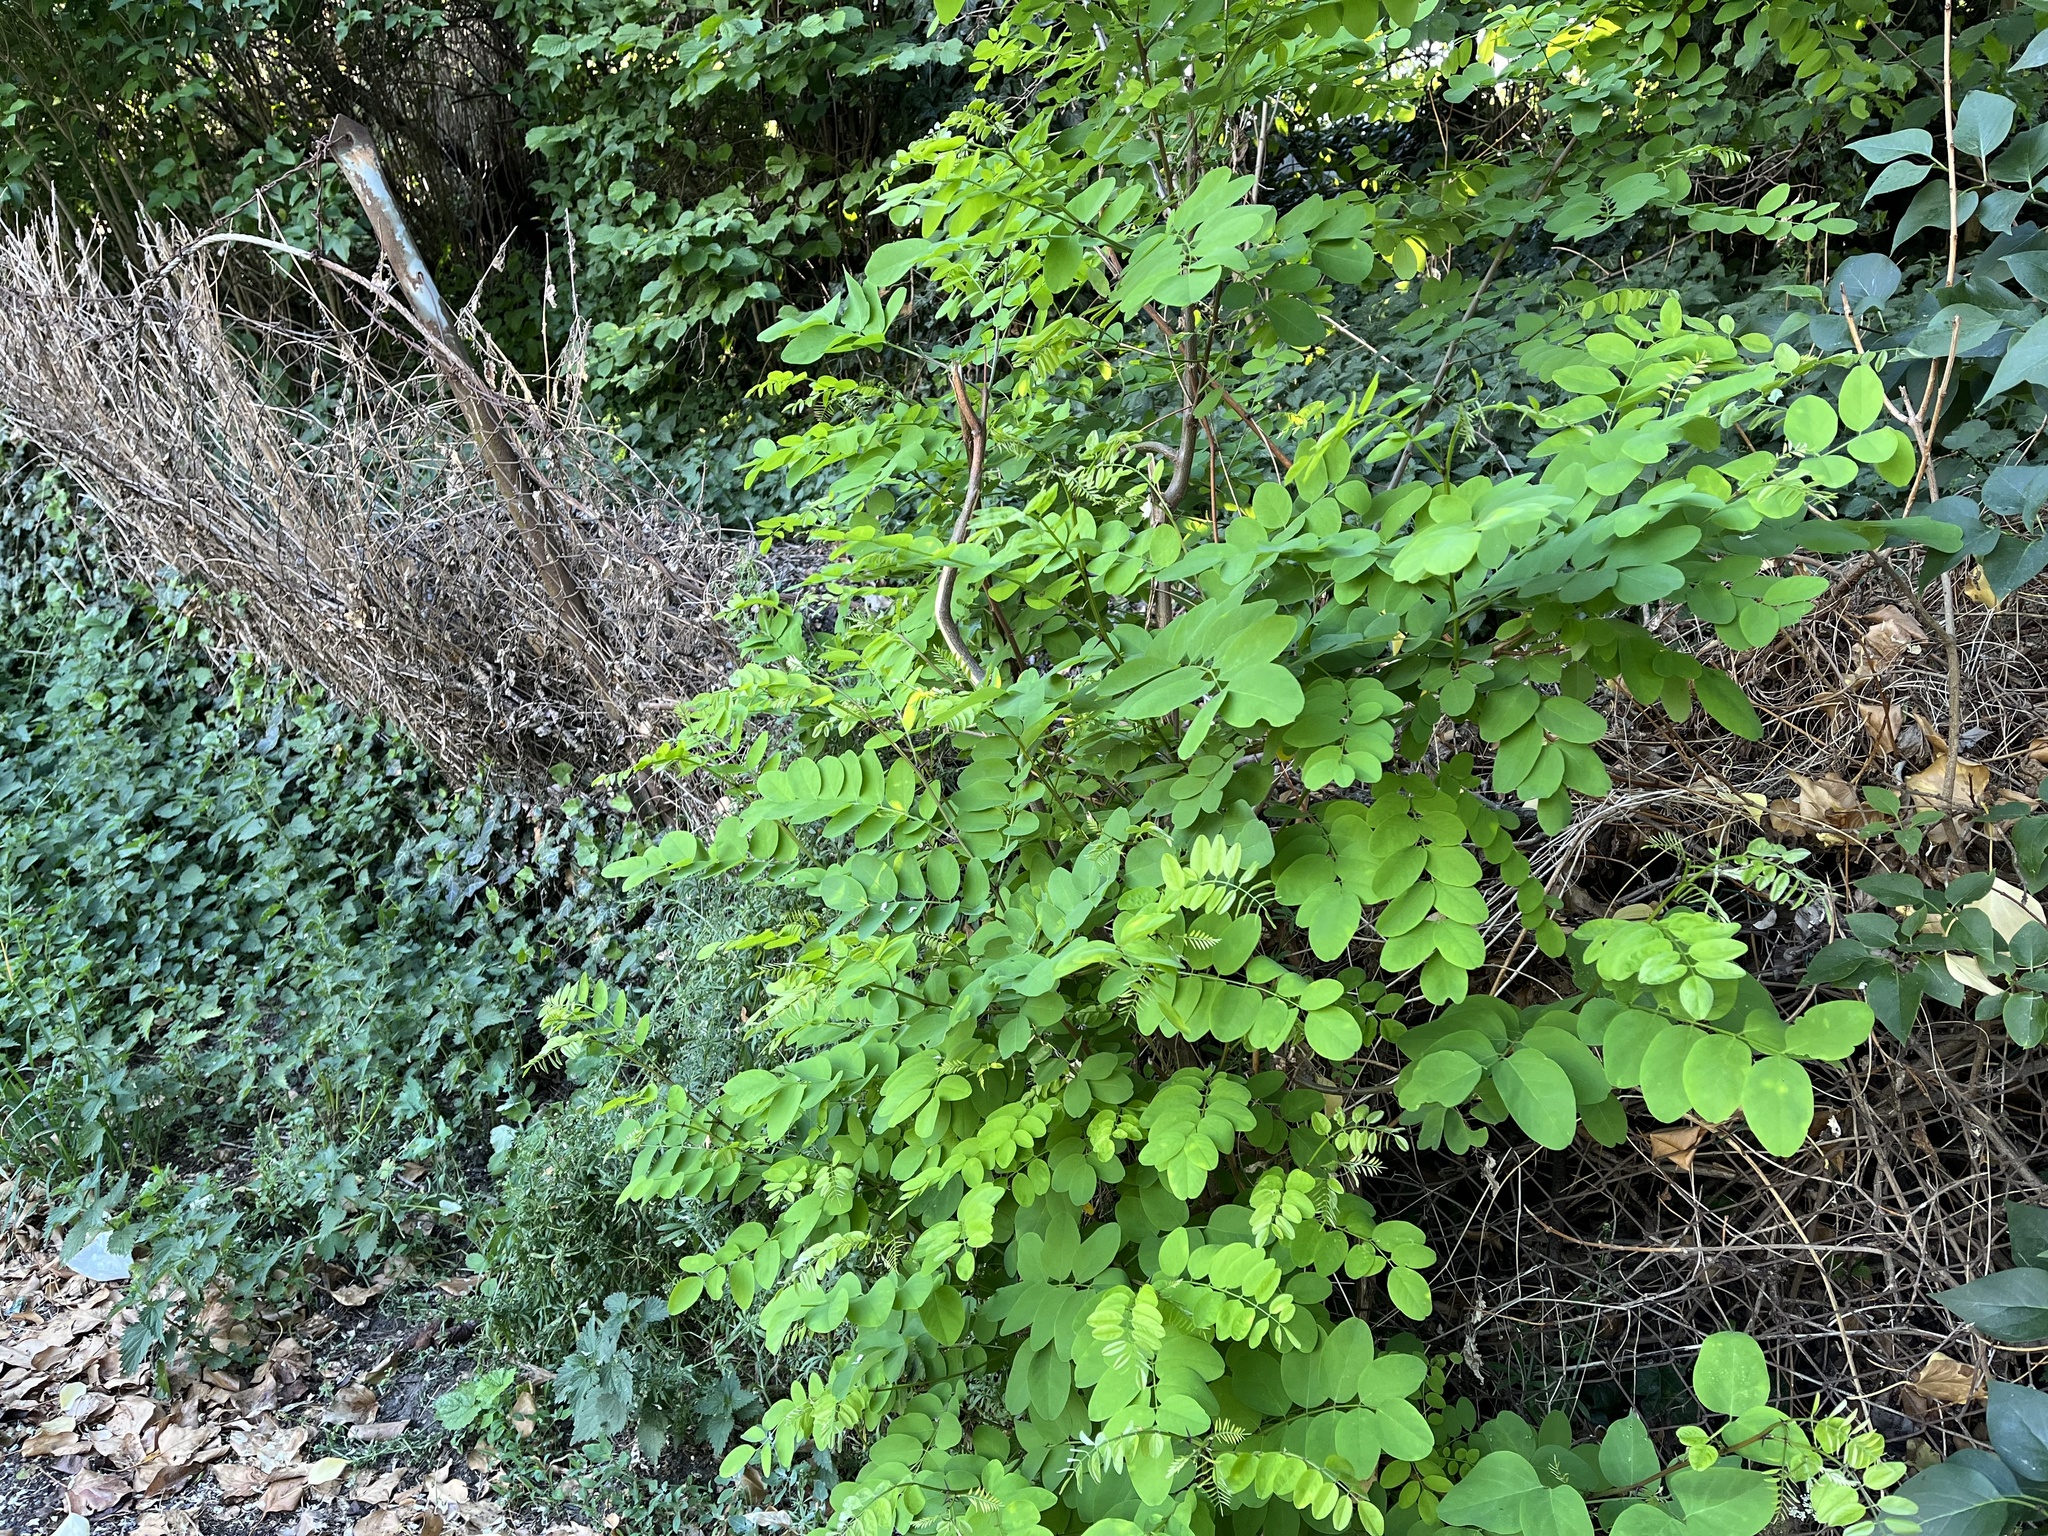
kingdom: Plantae
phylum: Tracheophyta
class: Magnoliopsida
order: Fabales
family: Fabaceae
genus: Robinia
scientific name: Robinia pseudoacacia
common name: Black locust
